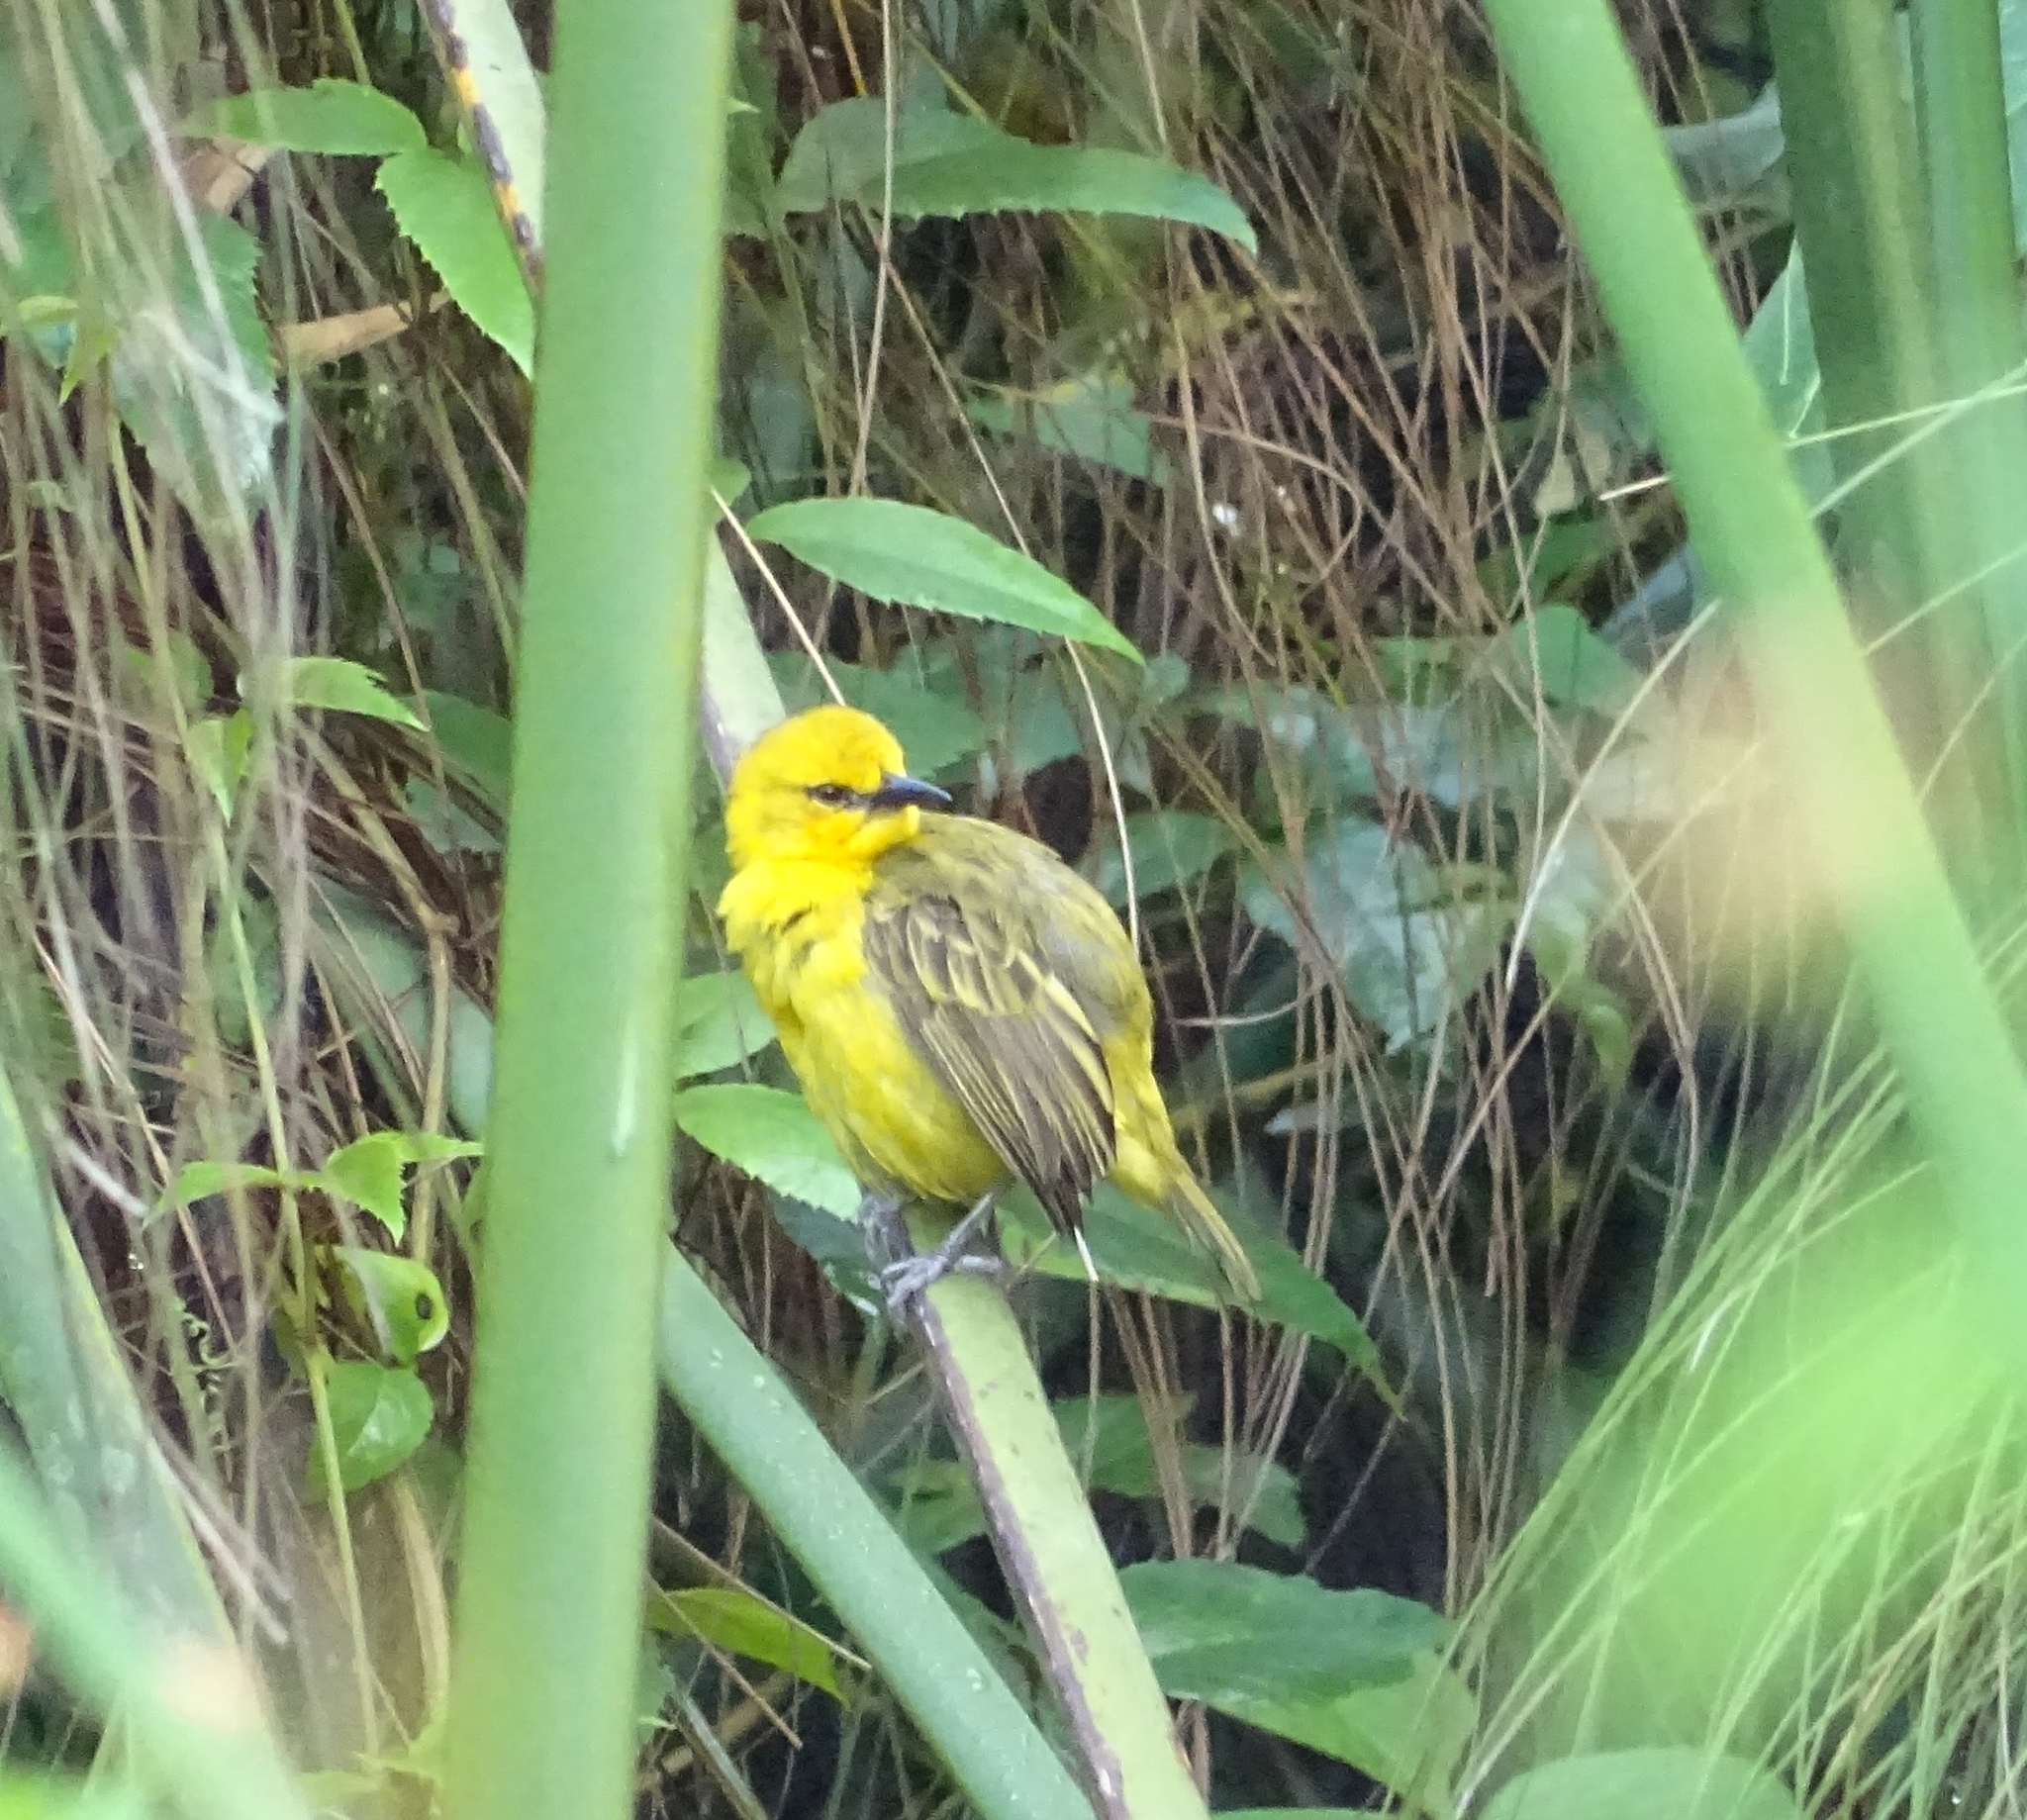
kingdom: Animalia
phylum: Chordata
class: Aves
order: Passeriformes
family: Ploceidae
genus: Ploceus
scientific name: Ploceus pelzelni
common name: Slender-billed weaver
